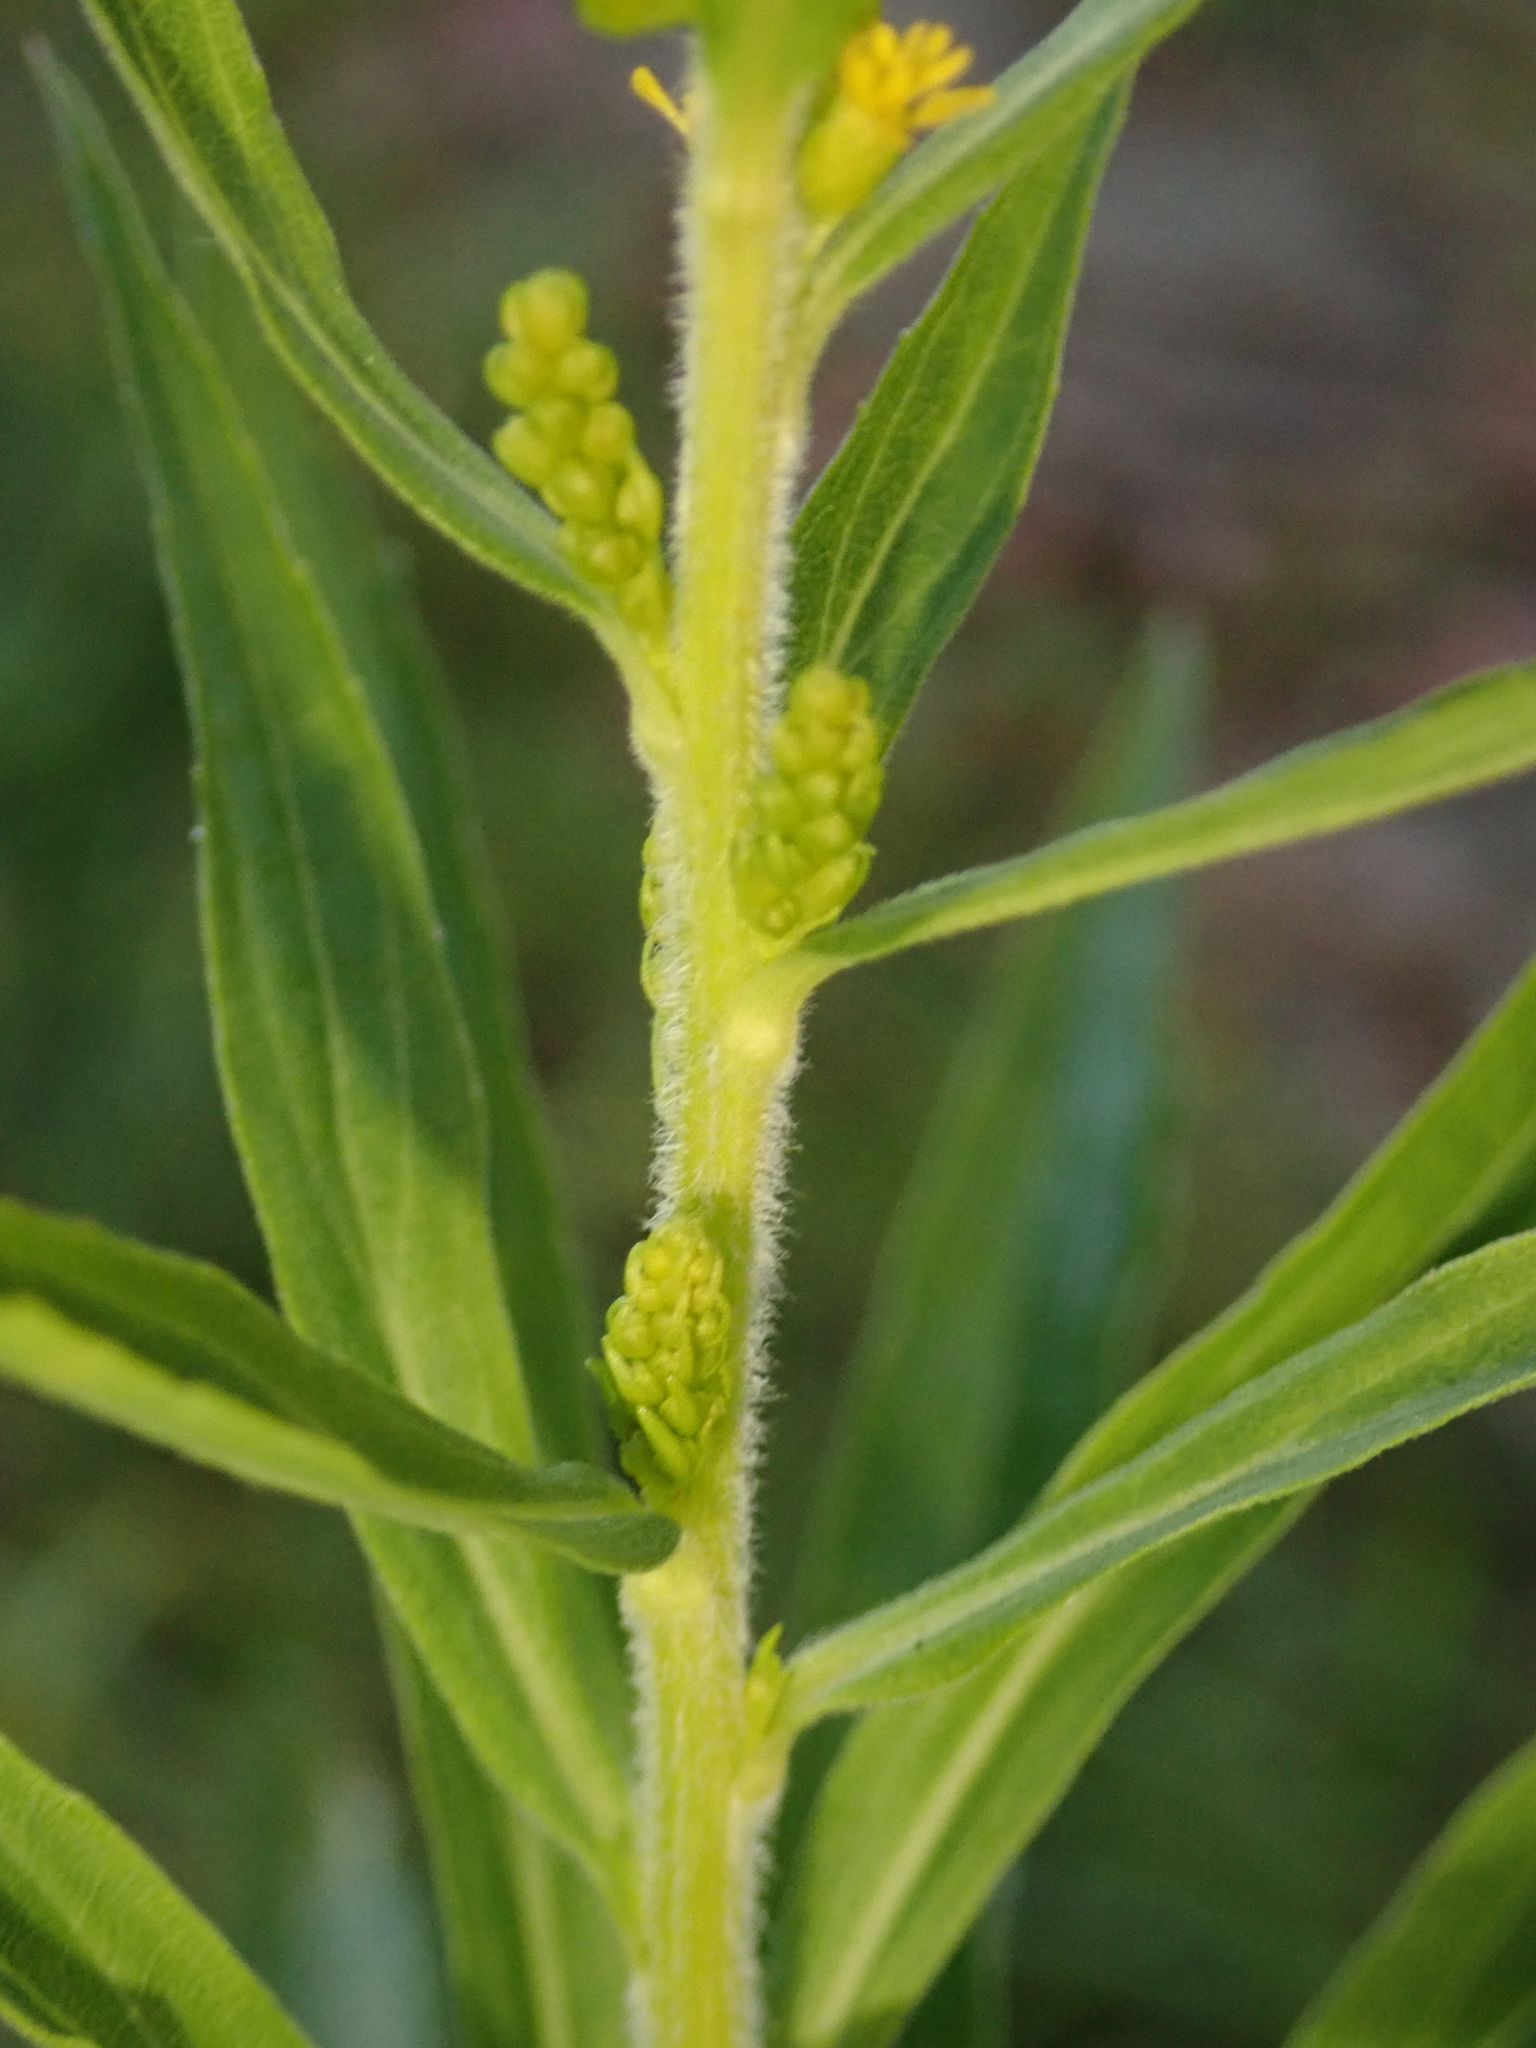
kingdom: Plantae
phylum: Tracheophyta
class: Magnoliopsida
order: Asterales
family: Asteraceae
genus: Solidago
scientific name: Solidago canadensis
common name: Canada goldenrod
